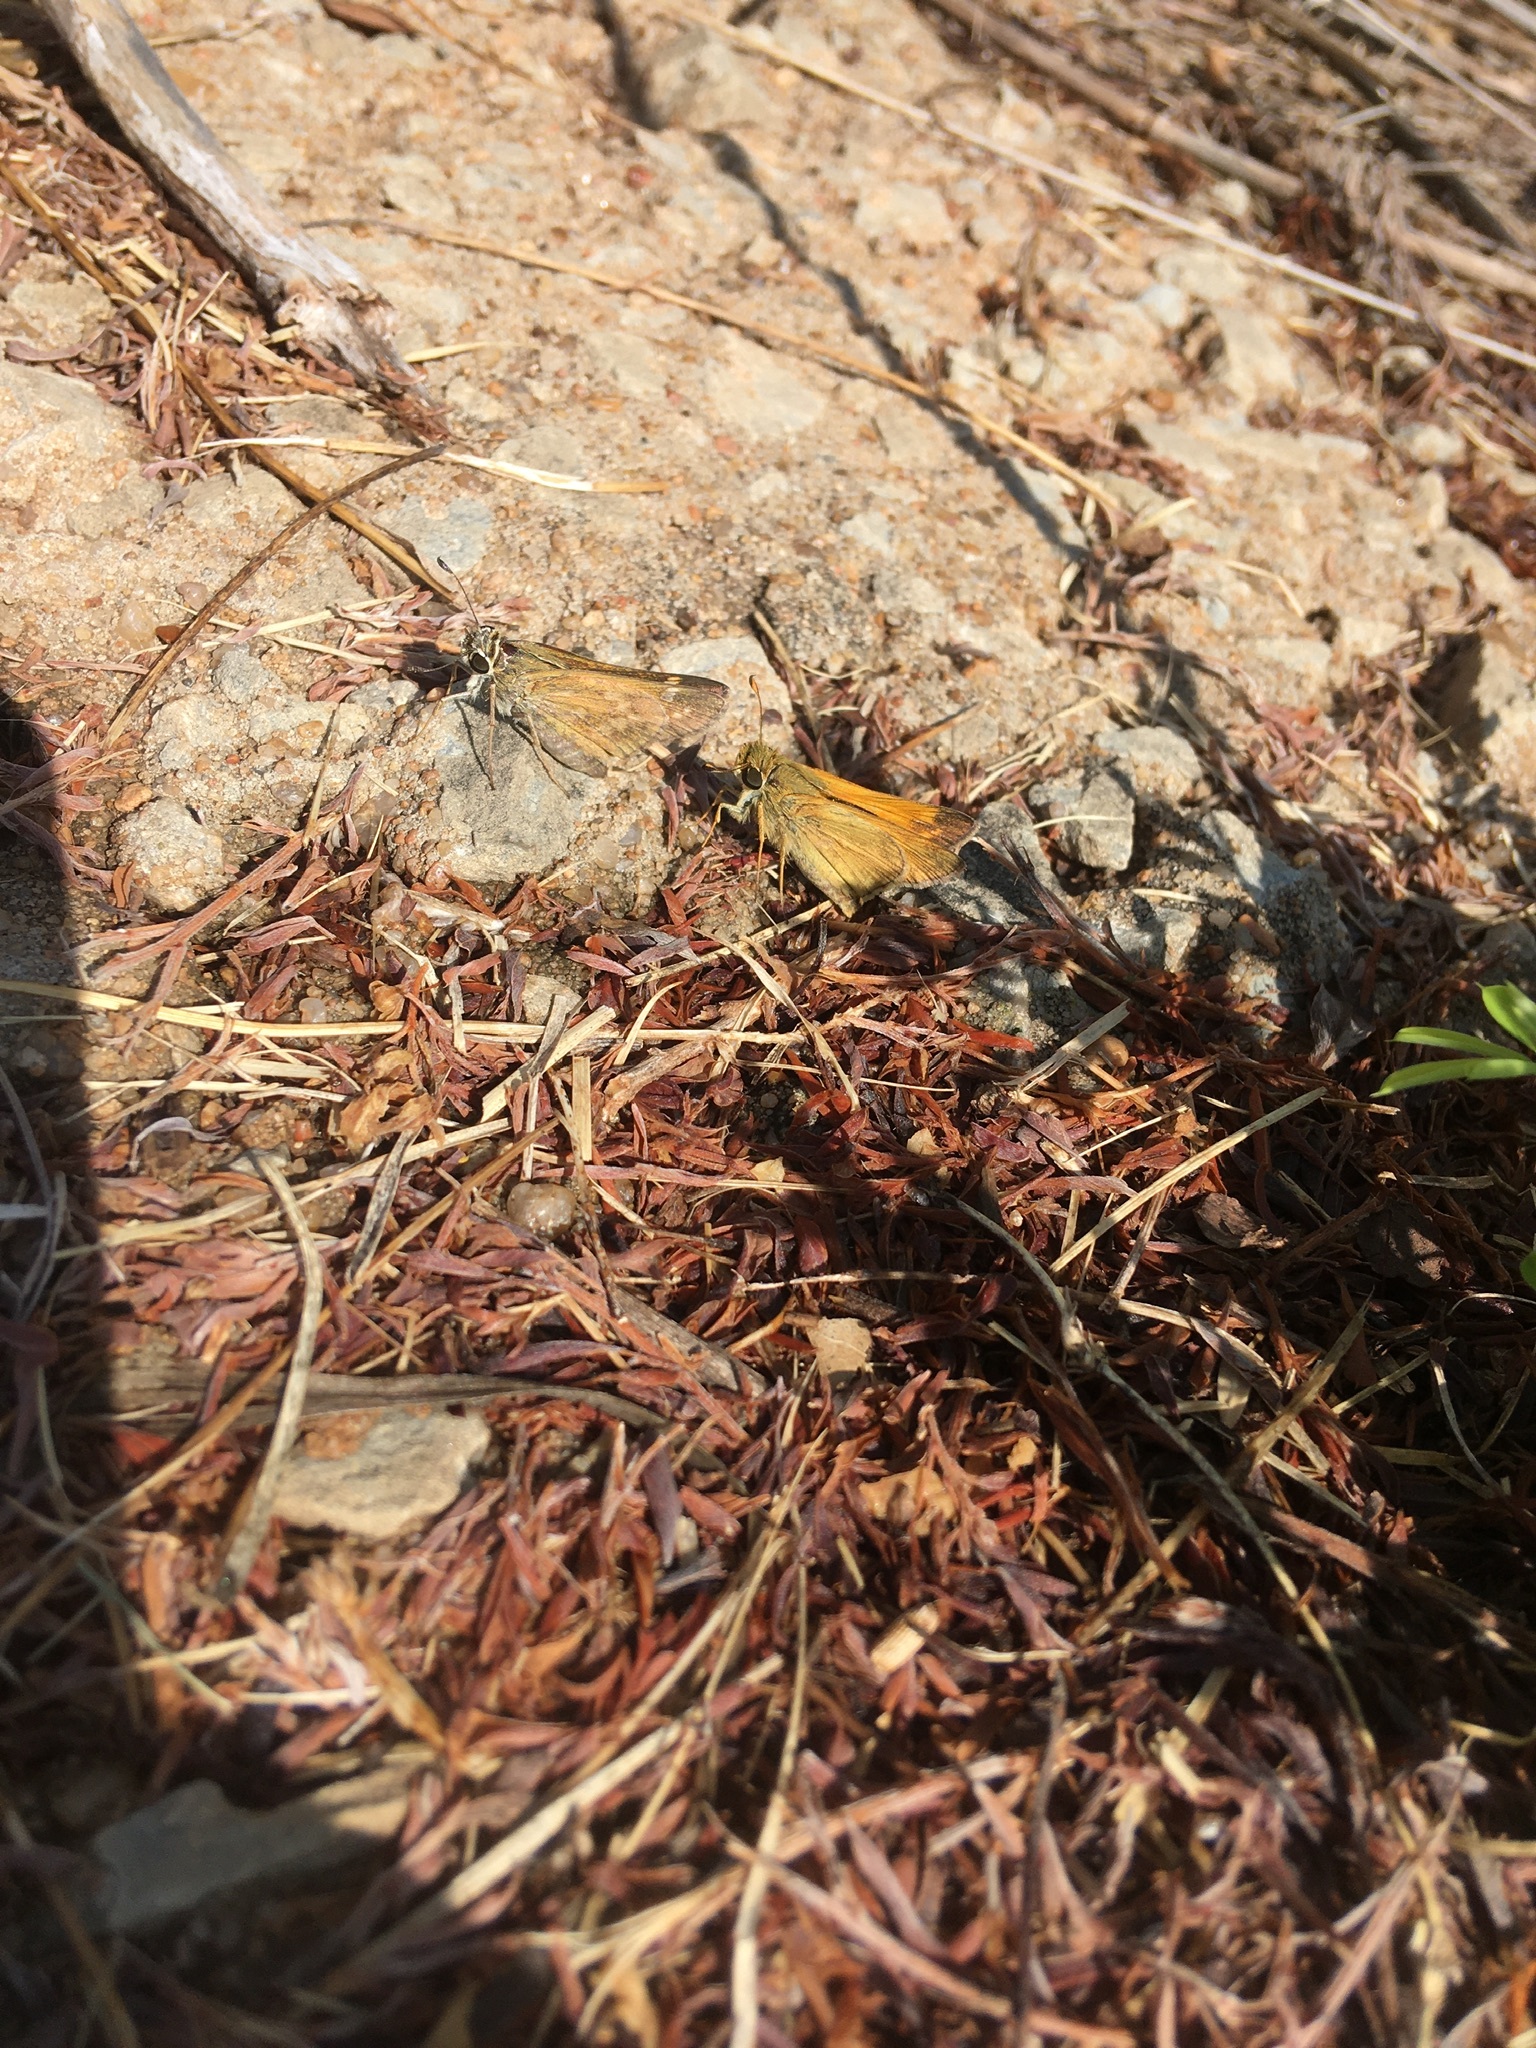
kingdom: Animalia
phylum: Arthropoda
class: Insecta
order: Lepidoptera
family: Hesperiidae
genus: Atalopedes
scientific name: Atalopedes
